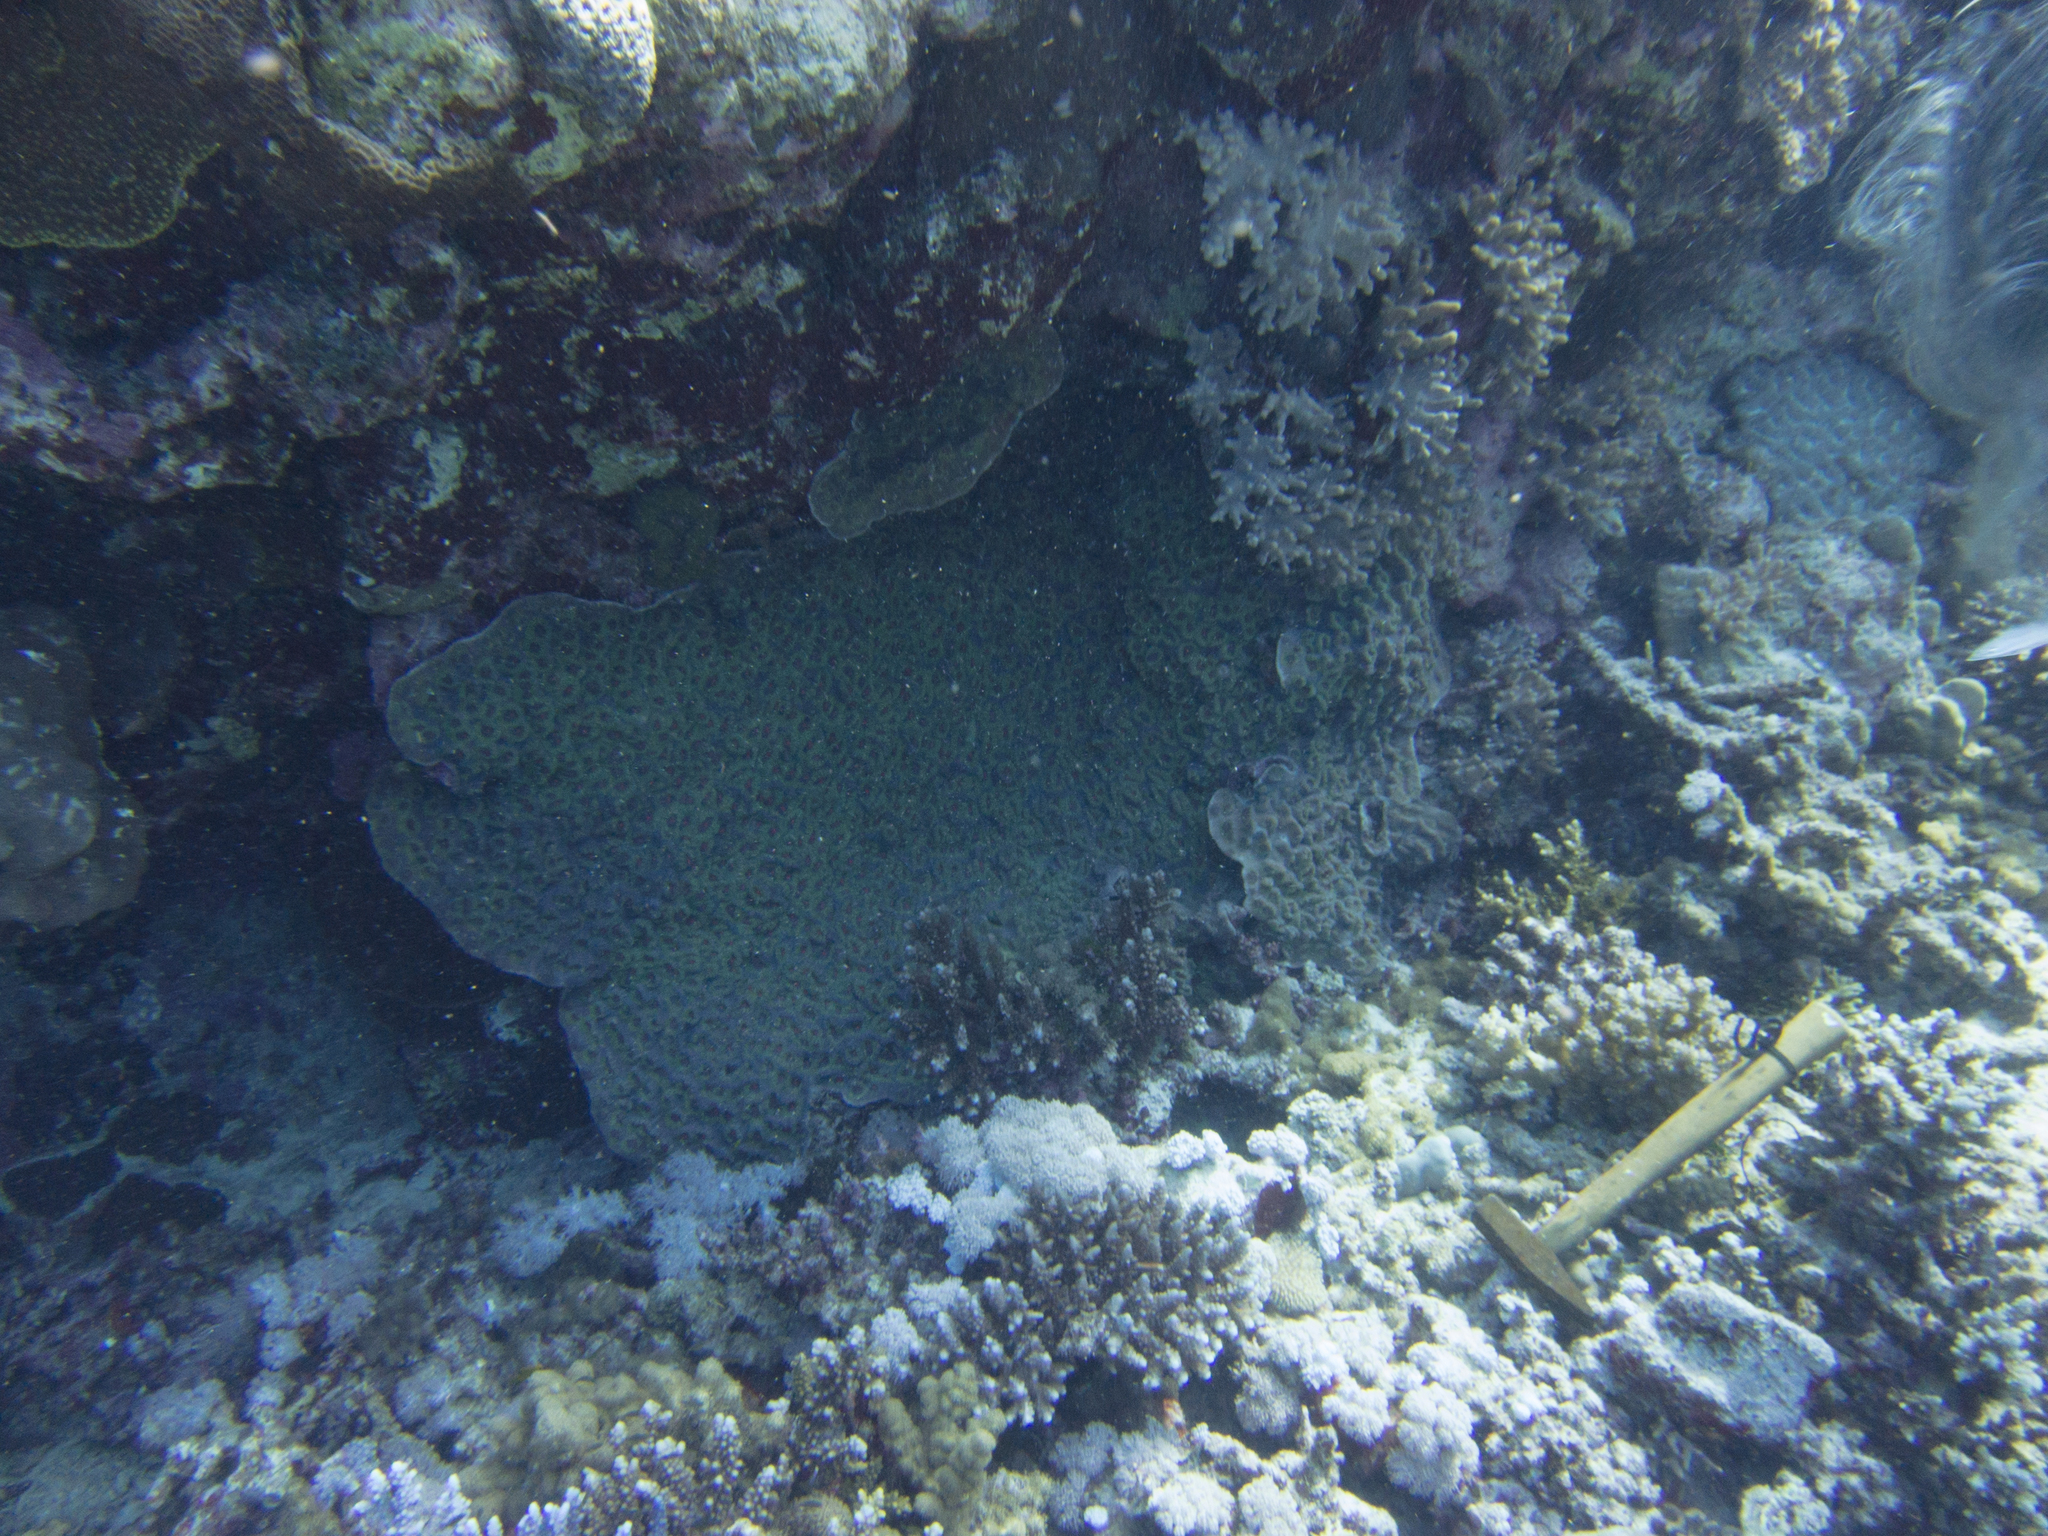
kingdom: Animalia
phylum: Cnidaria
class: Anthozoa
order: Scleractinia
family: Merulinidae
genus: Mycedium
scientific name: Mycedium elephantotus
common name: Chinese lettuce coral
